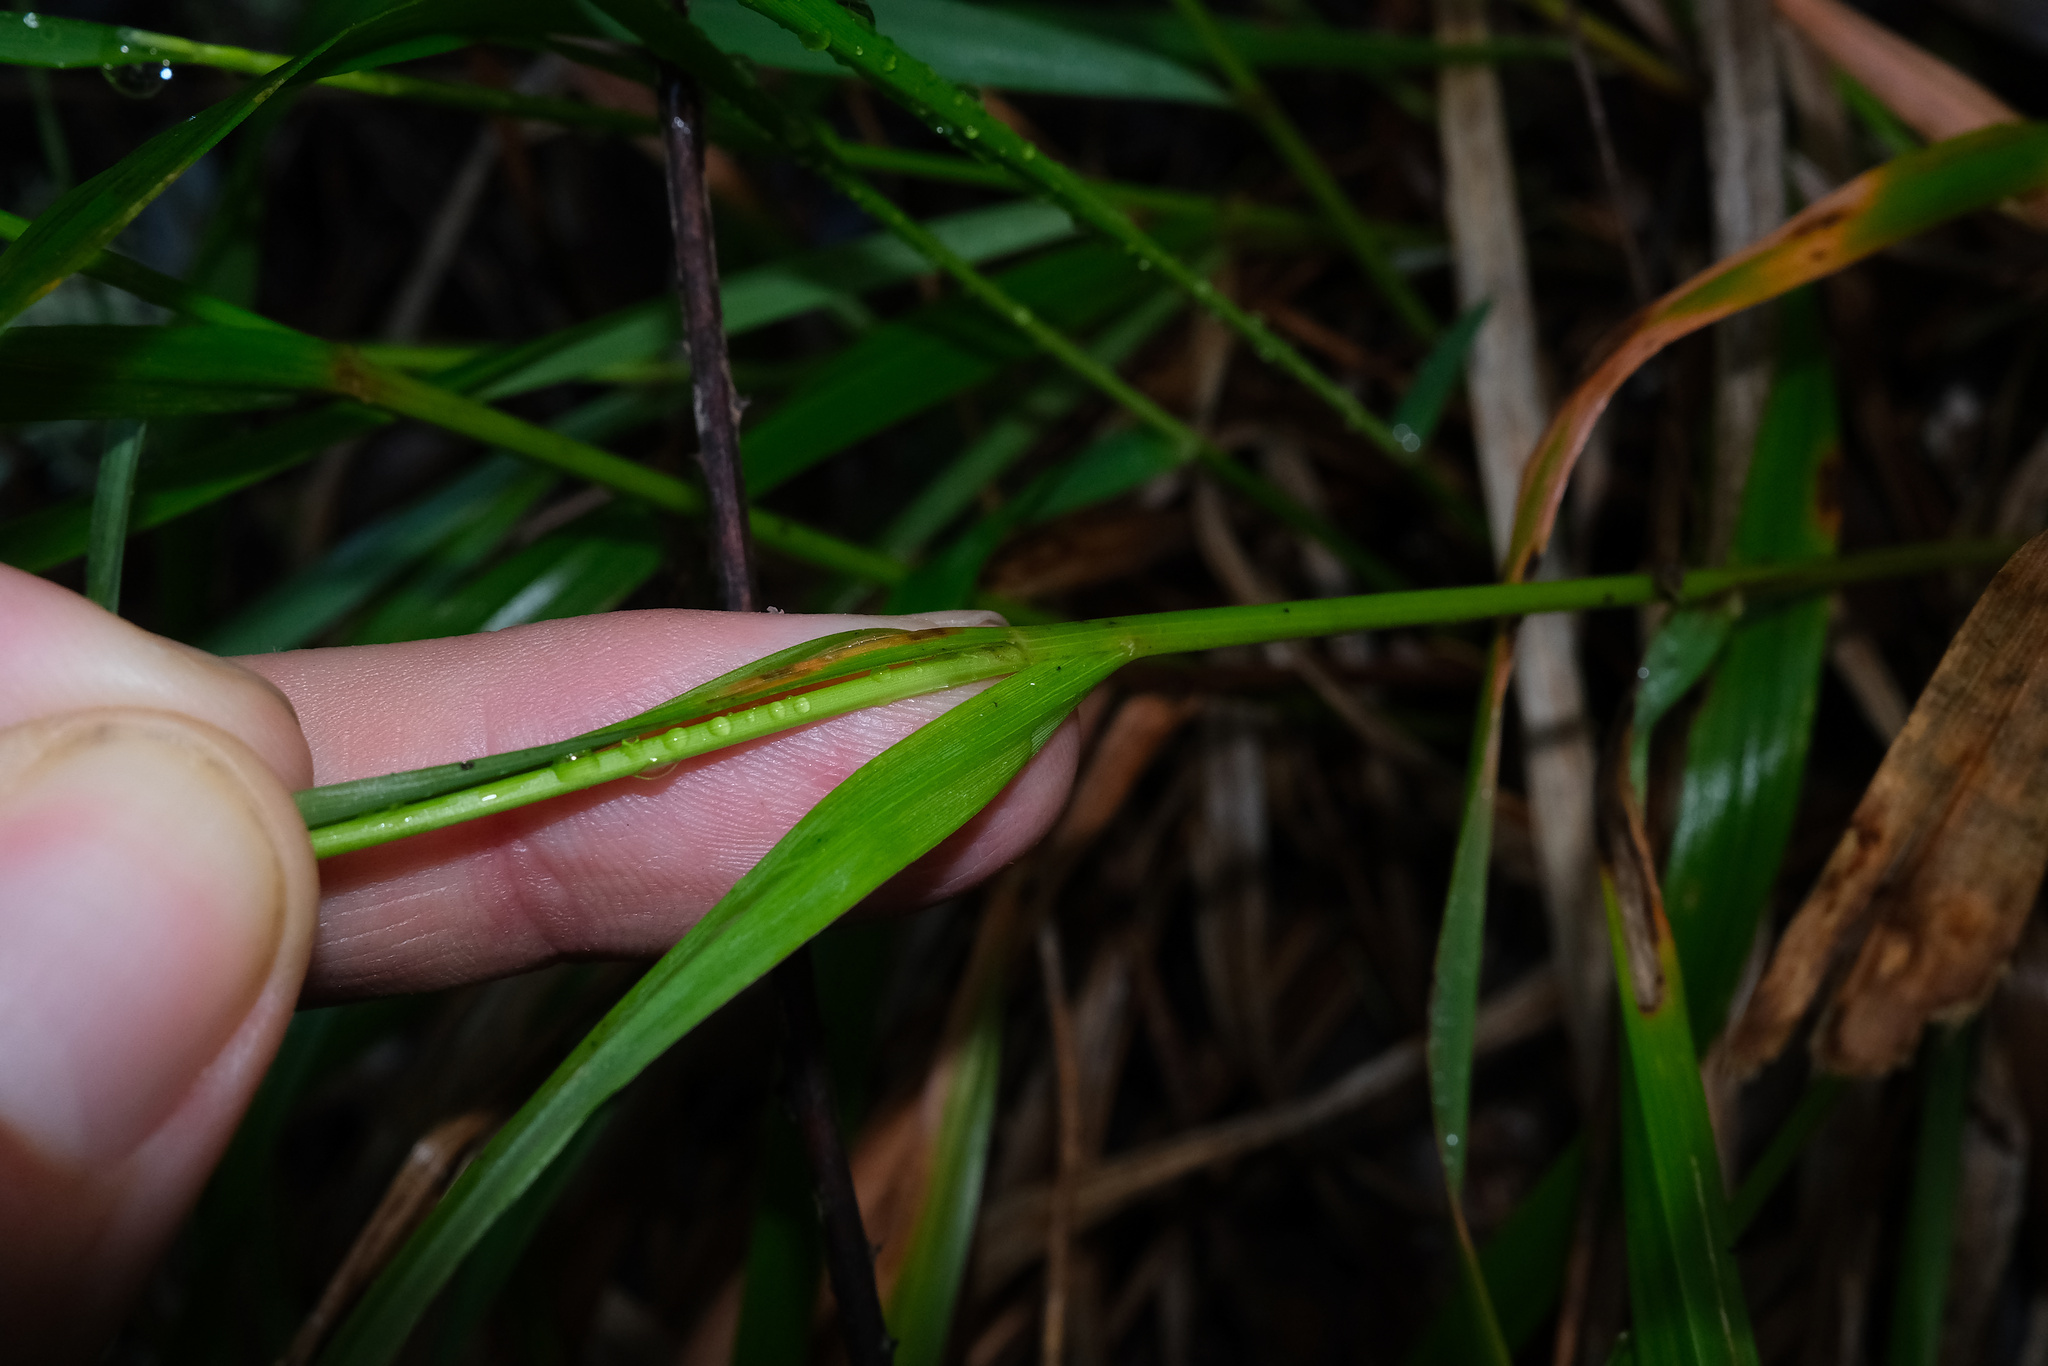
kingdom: Plantae
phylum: Tracheophyta
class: Liliopsida
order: Poales
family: Poaceae
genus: Anthoxanthum
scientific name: Anthoxanthum occidentale
